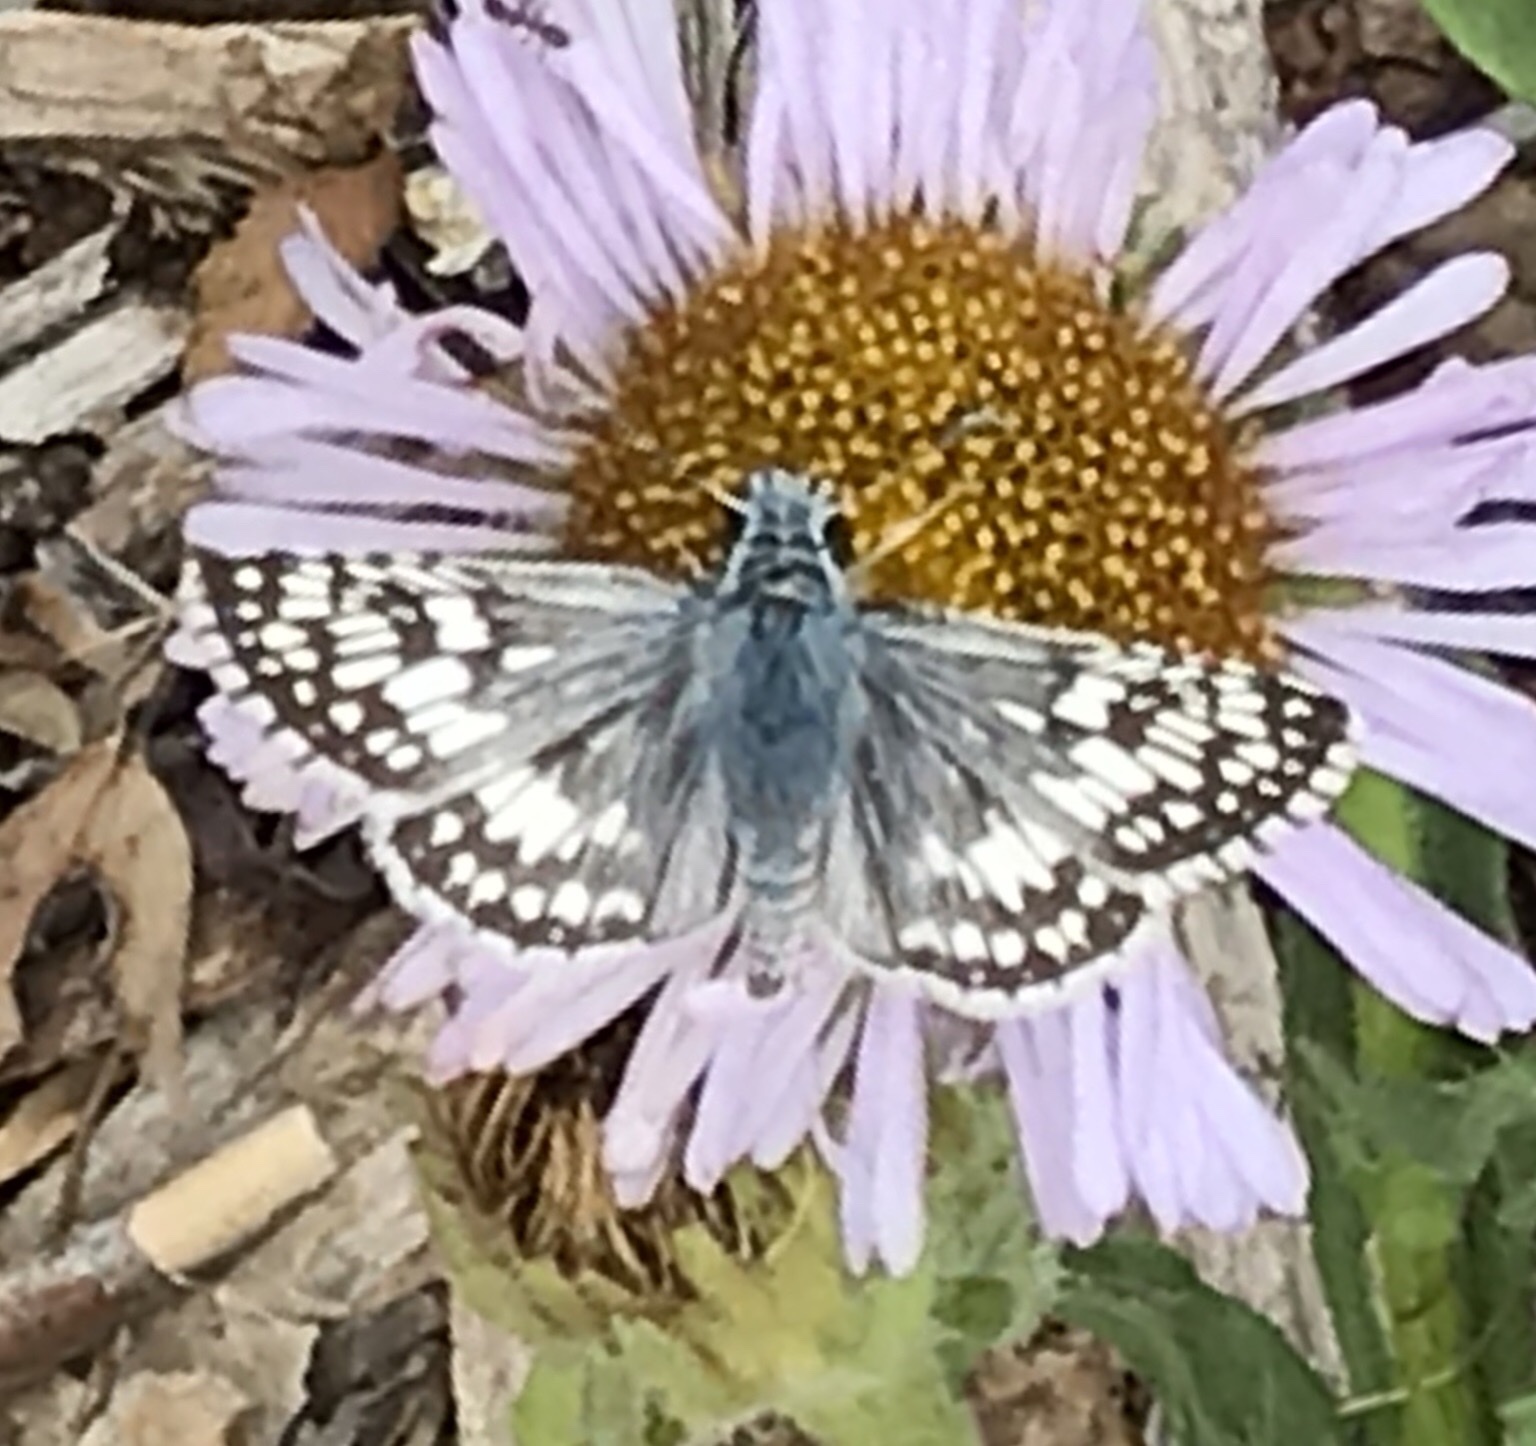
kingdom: Animalia
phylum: Arthropoda
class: Insecta
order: Lepidoptera
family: Hesperiidae
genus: Burnsius
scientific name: Burnsius albezens
